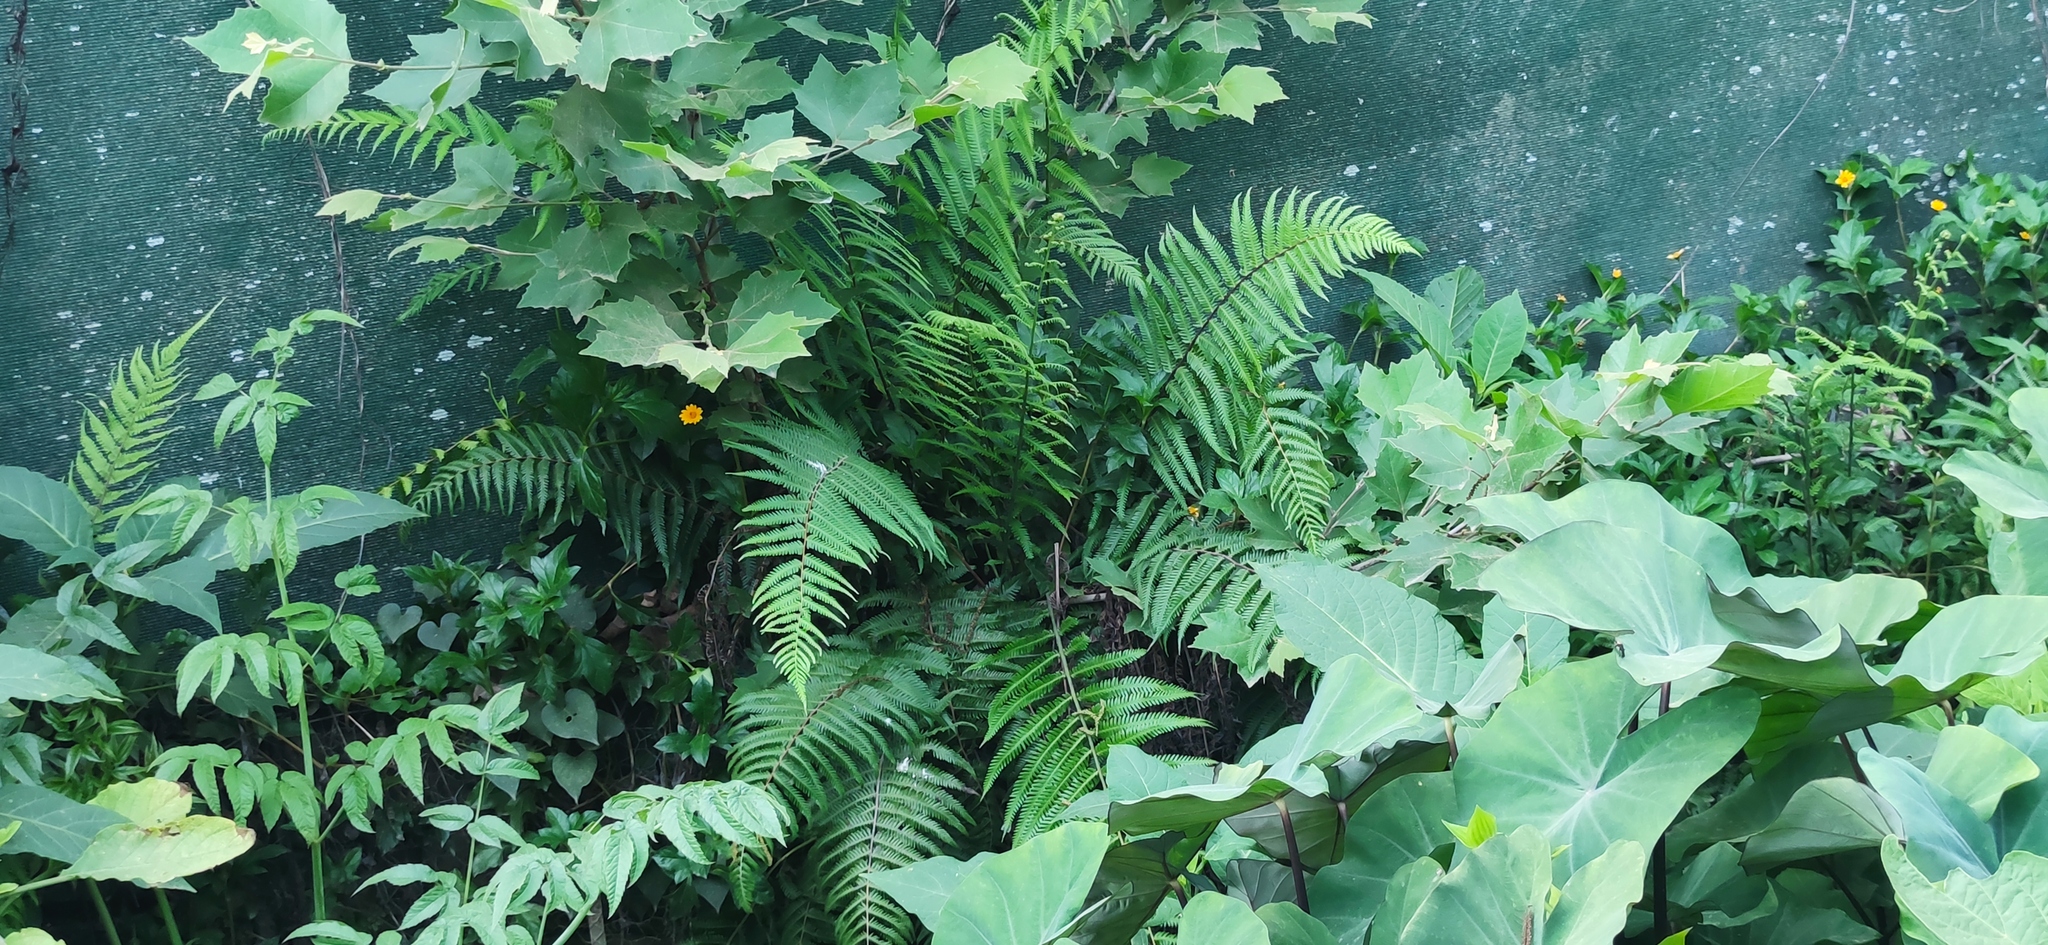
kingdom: Plantae
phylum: Tracheophyta
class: Polypodiopsida
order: Polypodiales
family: Thelypteridaceae
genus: Pelazoneuron
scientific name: Pelazoneuron ovatum
